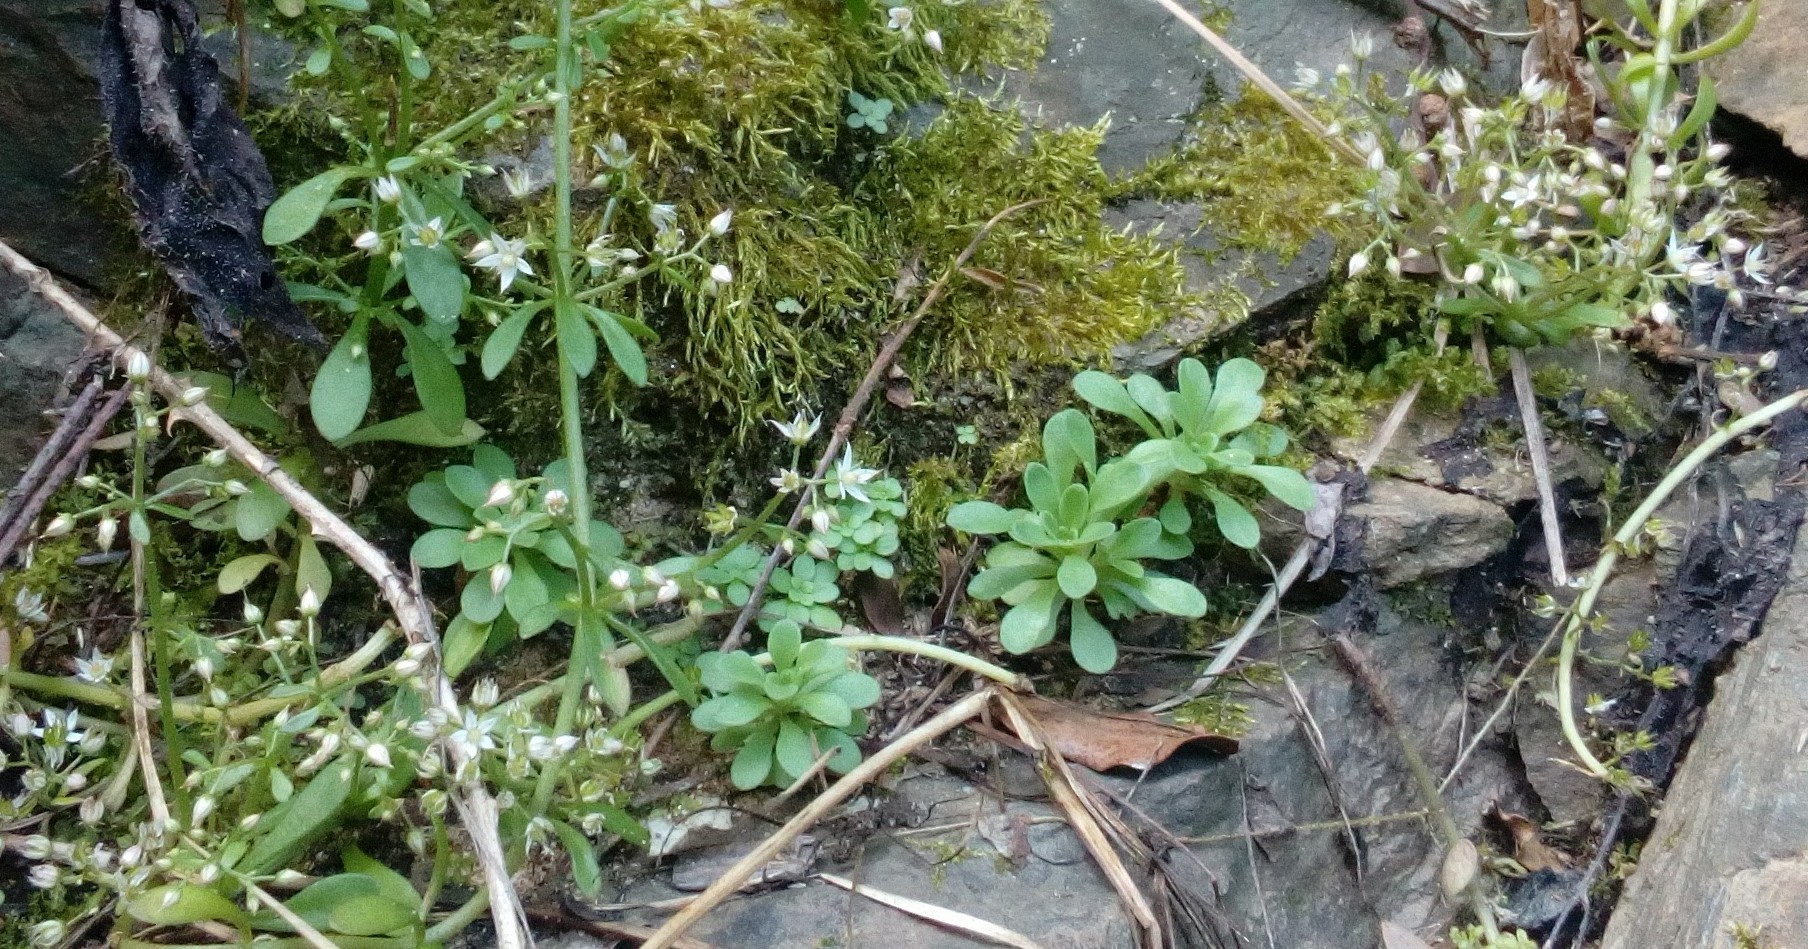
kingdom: Plantae
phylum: Tracheophyta
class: Magnoliopsida
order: Saxifragales
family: Crassulaceae
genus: Sedum
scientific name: Sedum cepaea
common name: Pink stonecrop
